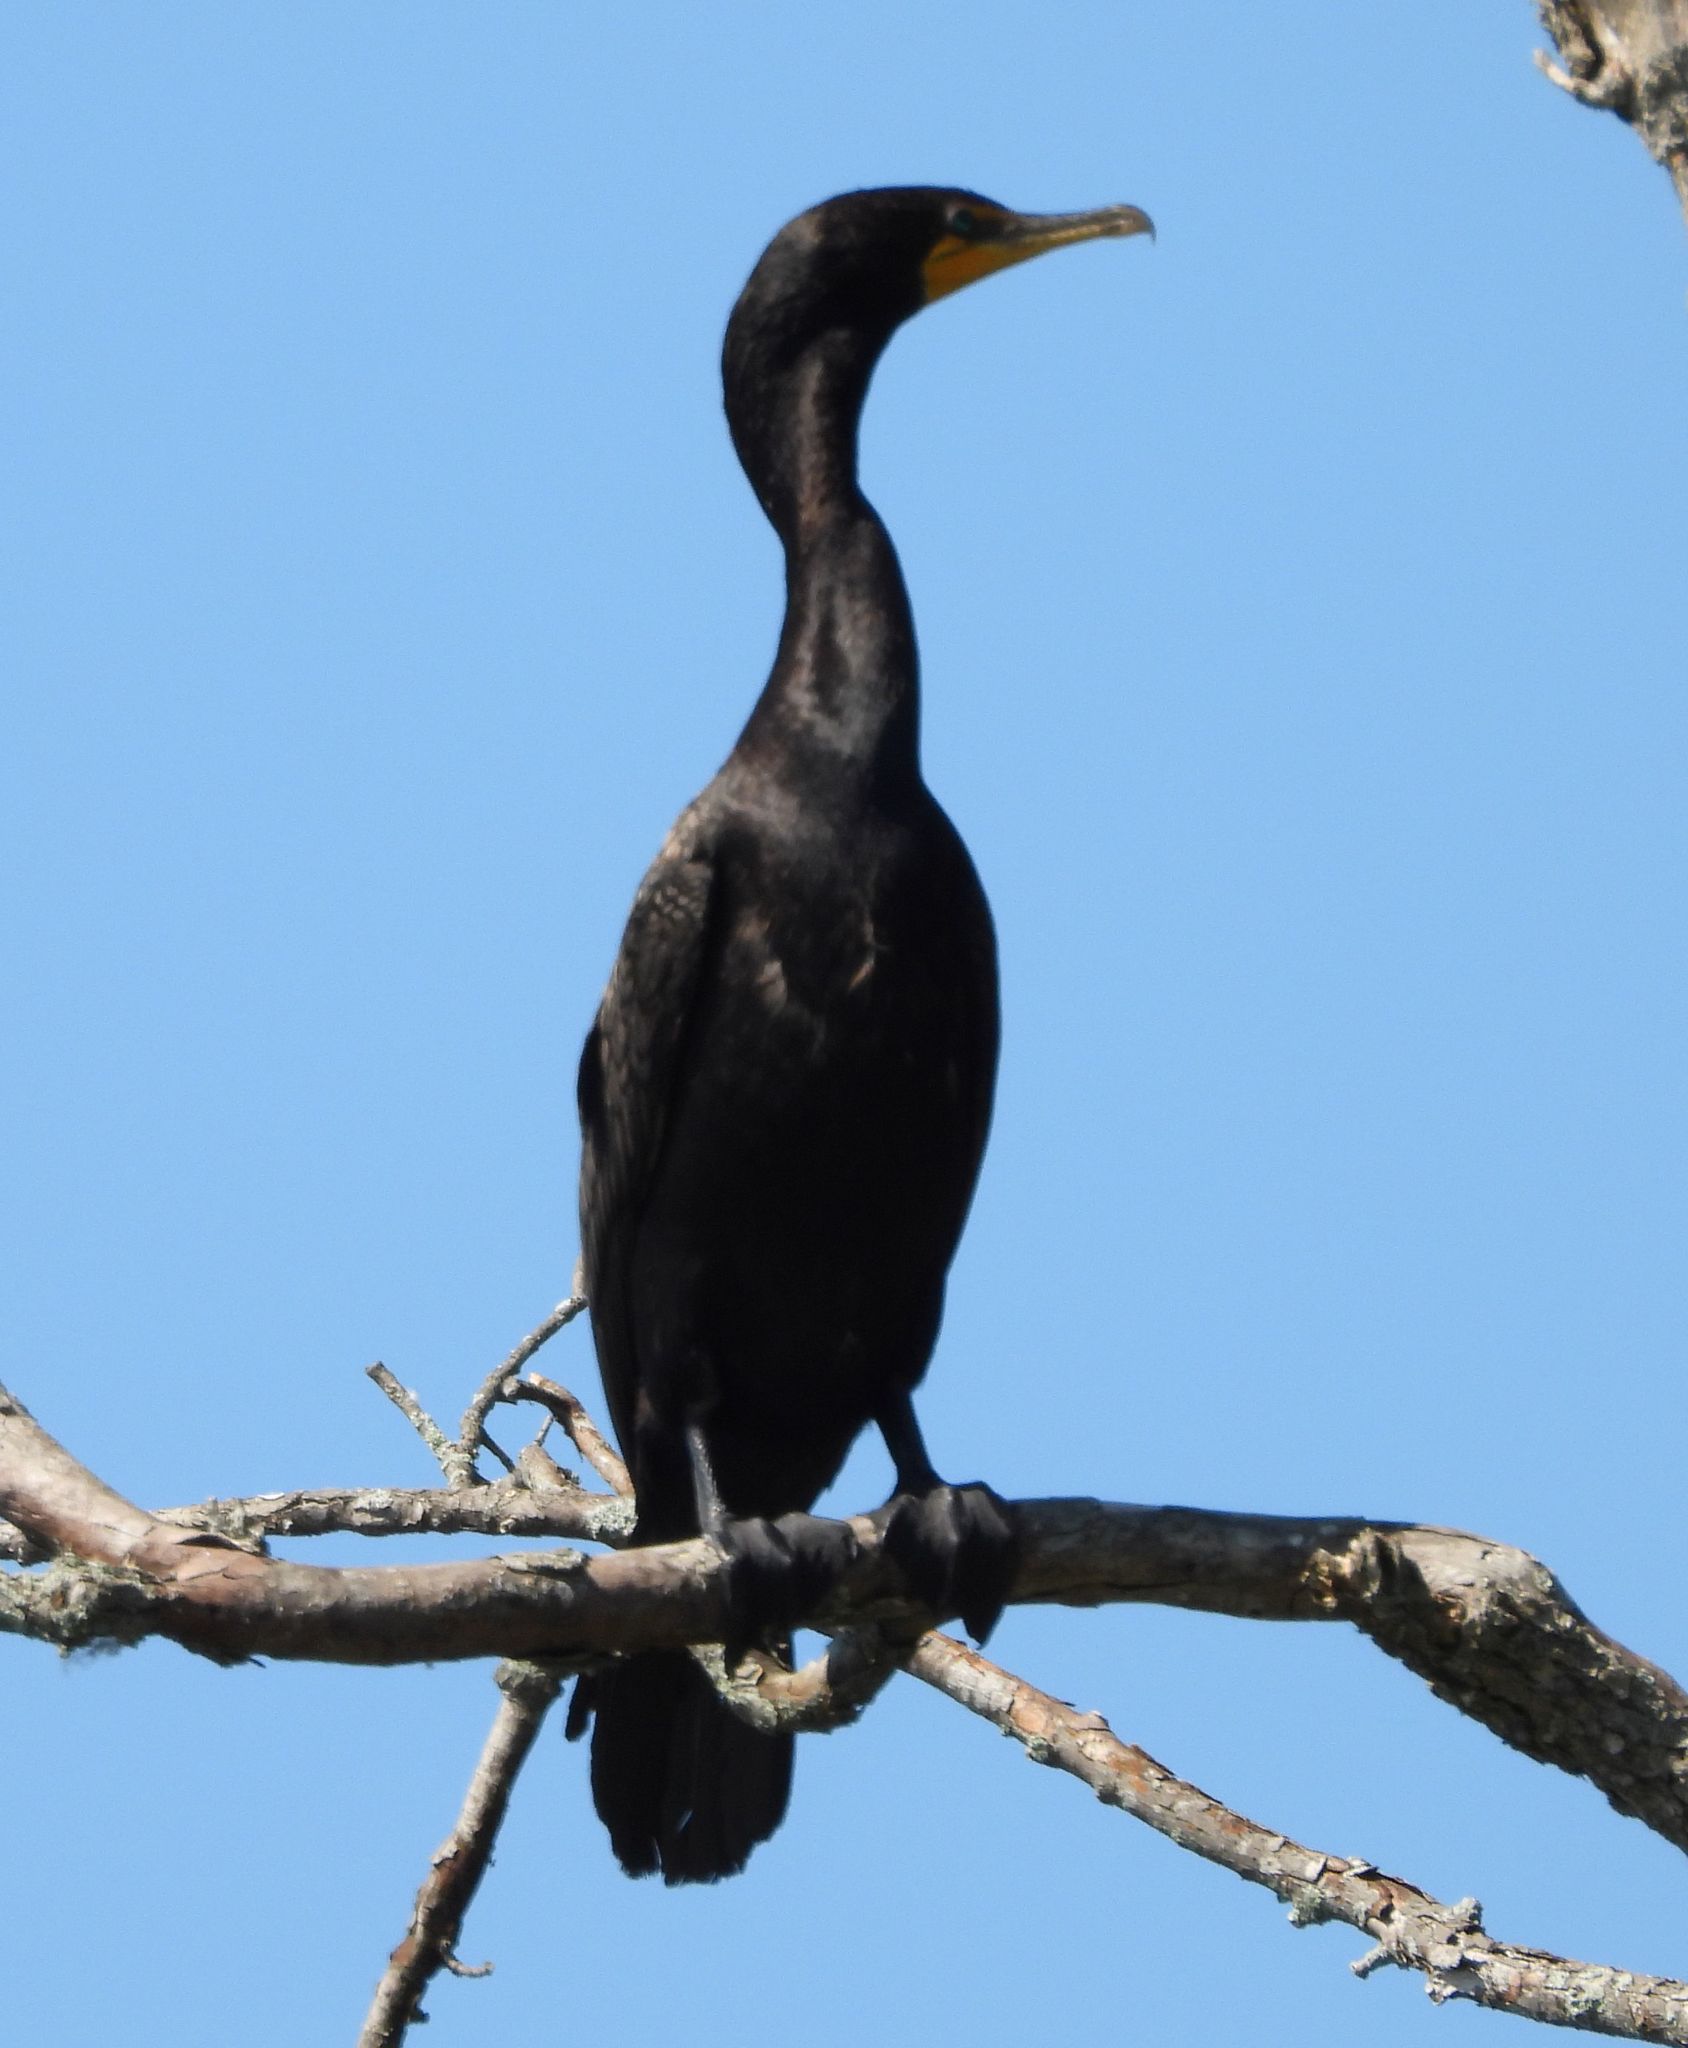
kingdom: Animalia
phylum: Chordata
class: Aves
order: Suliformes
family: Phalacrocoracidae
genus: Phalacrocorax
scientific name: Phalacrocorax auritus
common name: Double-crested cormorant
